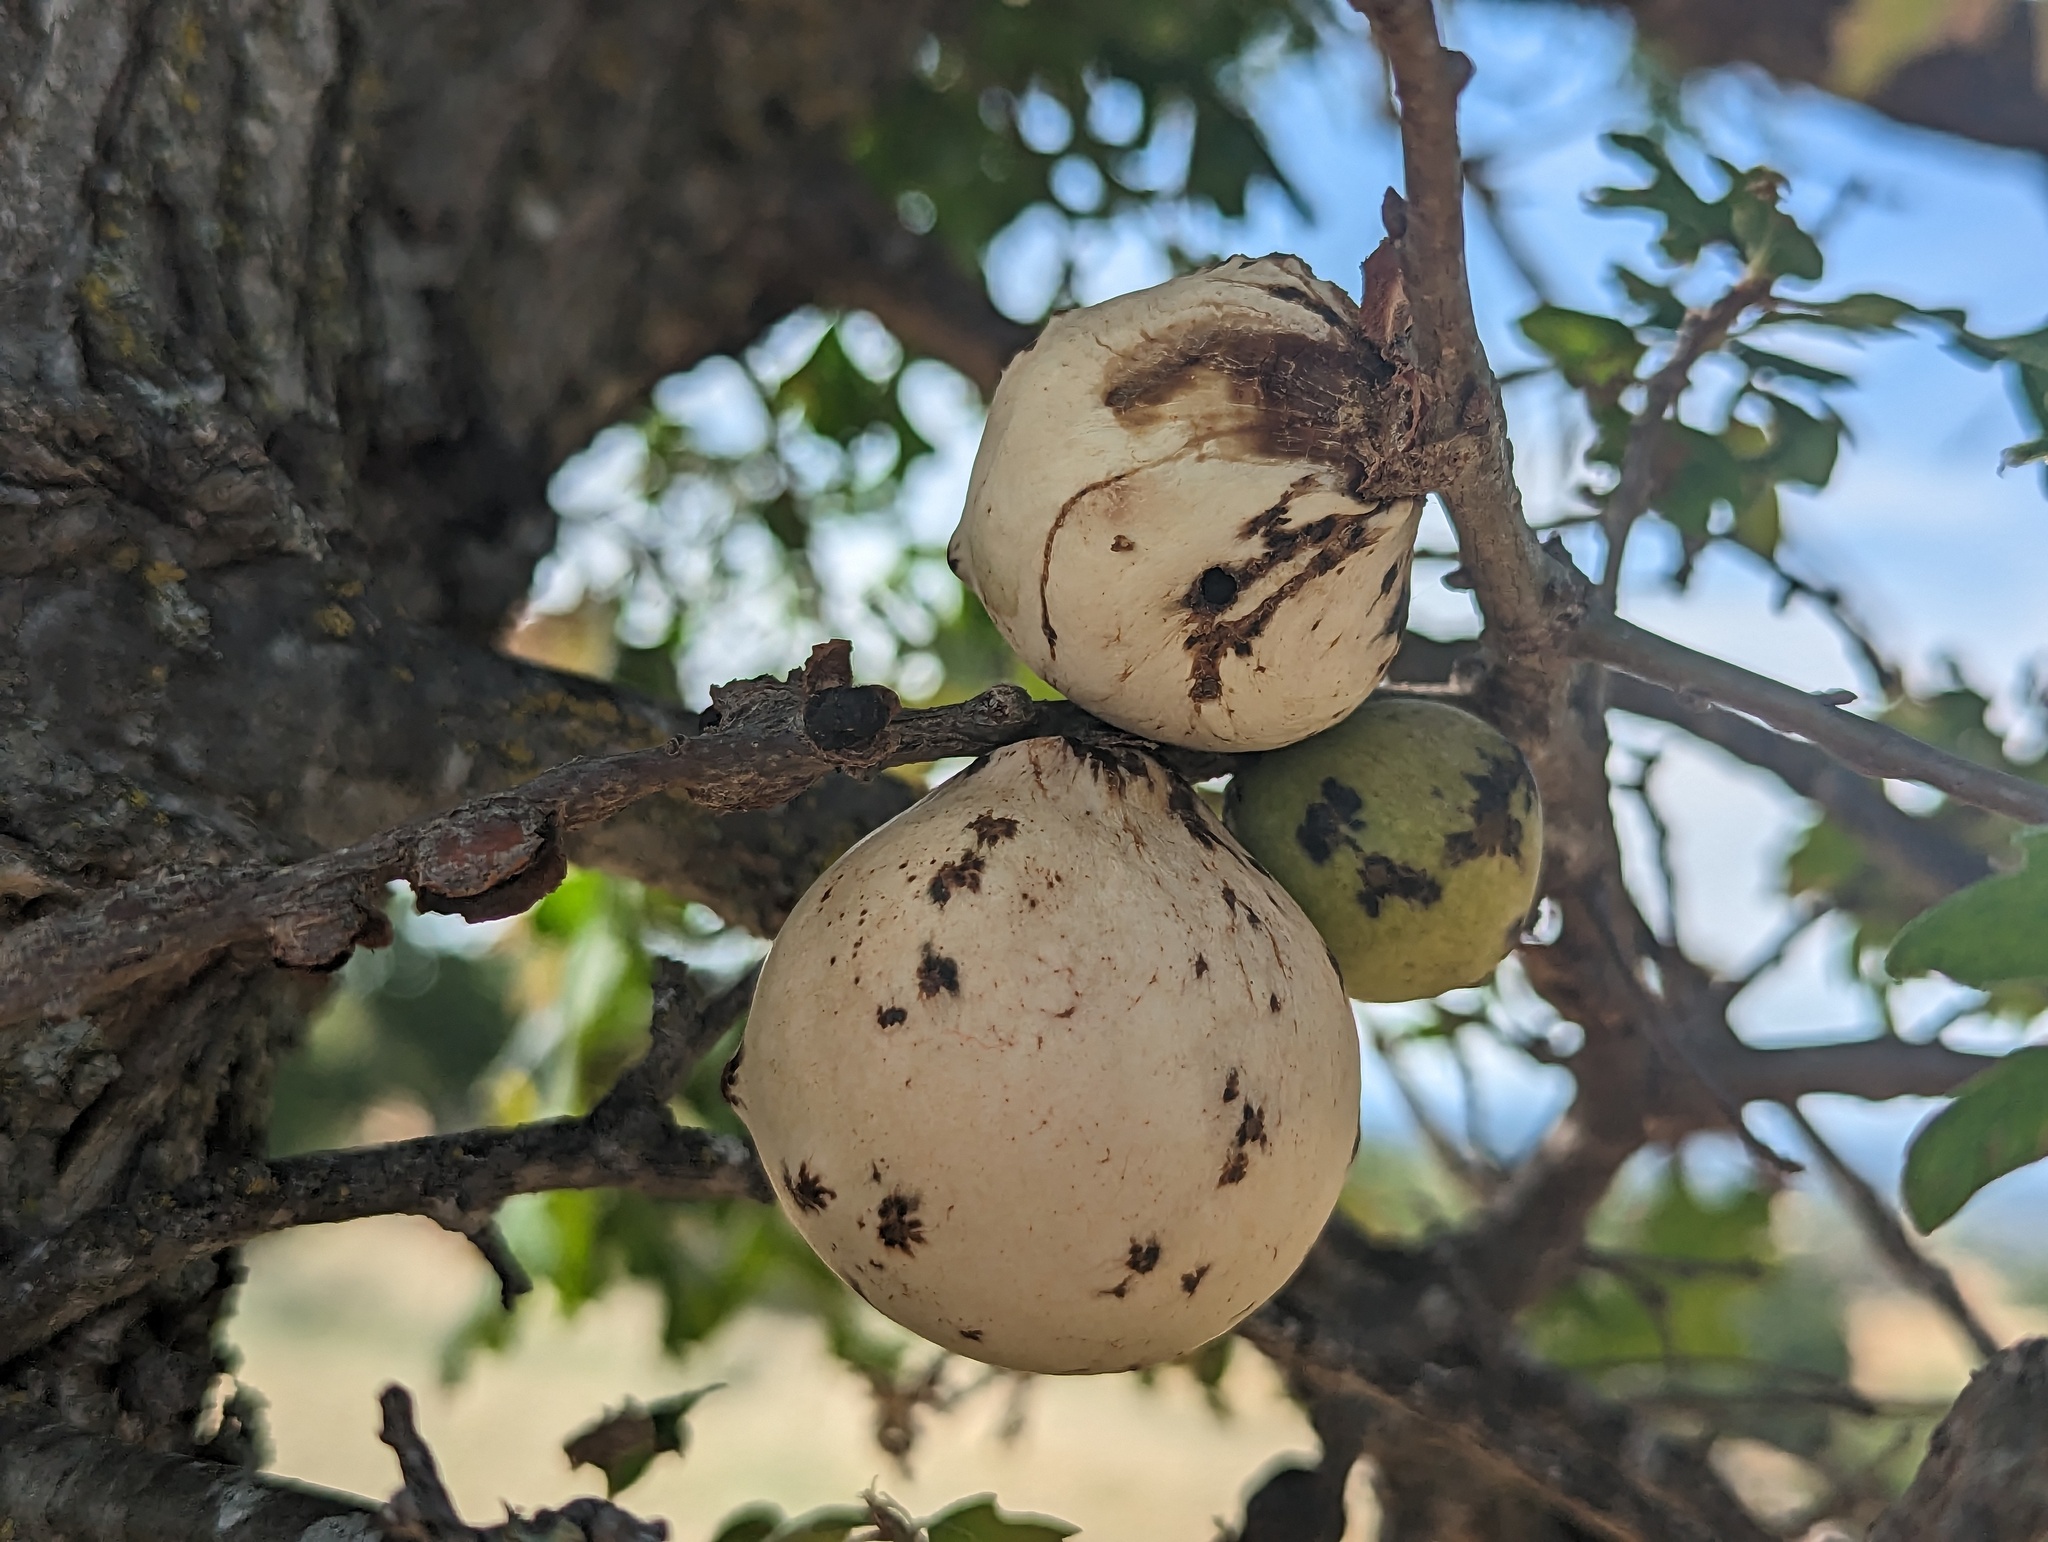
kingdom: Animalia
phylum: Arthropoda
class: Insecta
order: Hymenoptera
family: Cynipidae
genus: Andricus
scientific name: Andricus quercuscalifornicus
